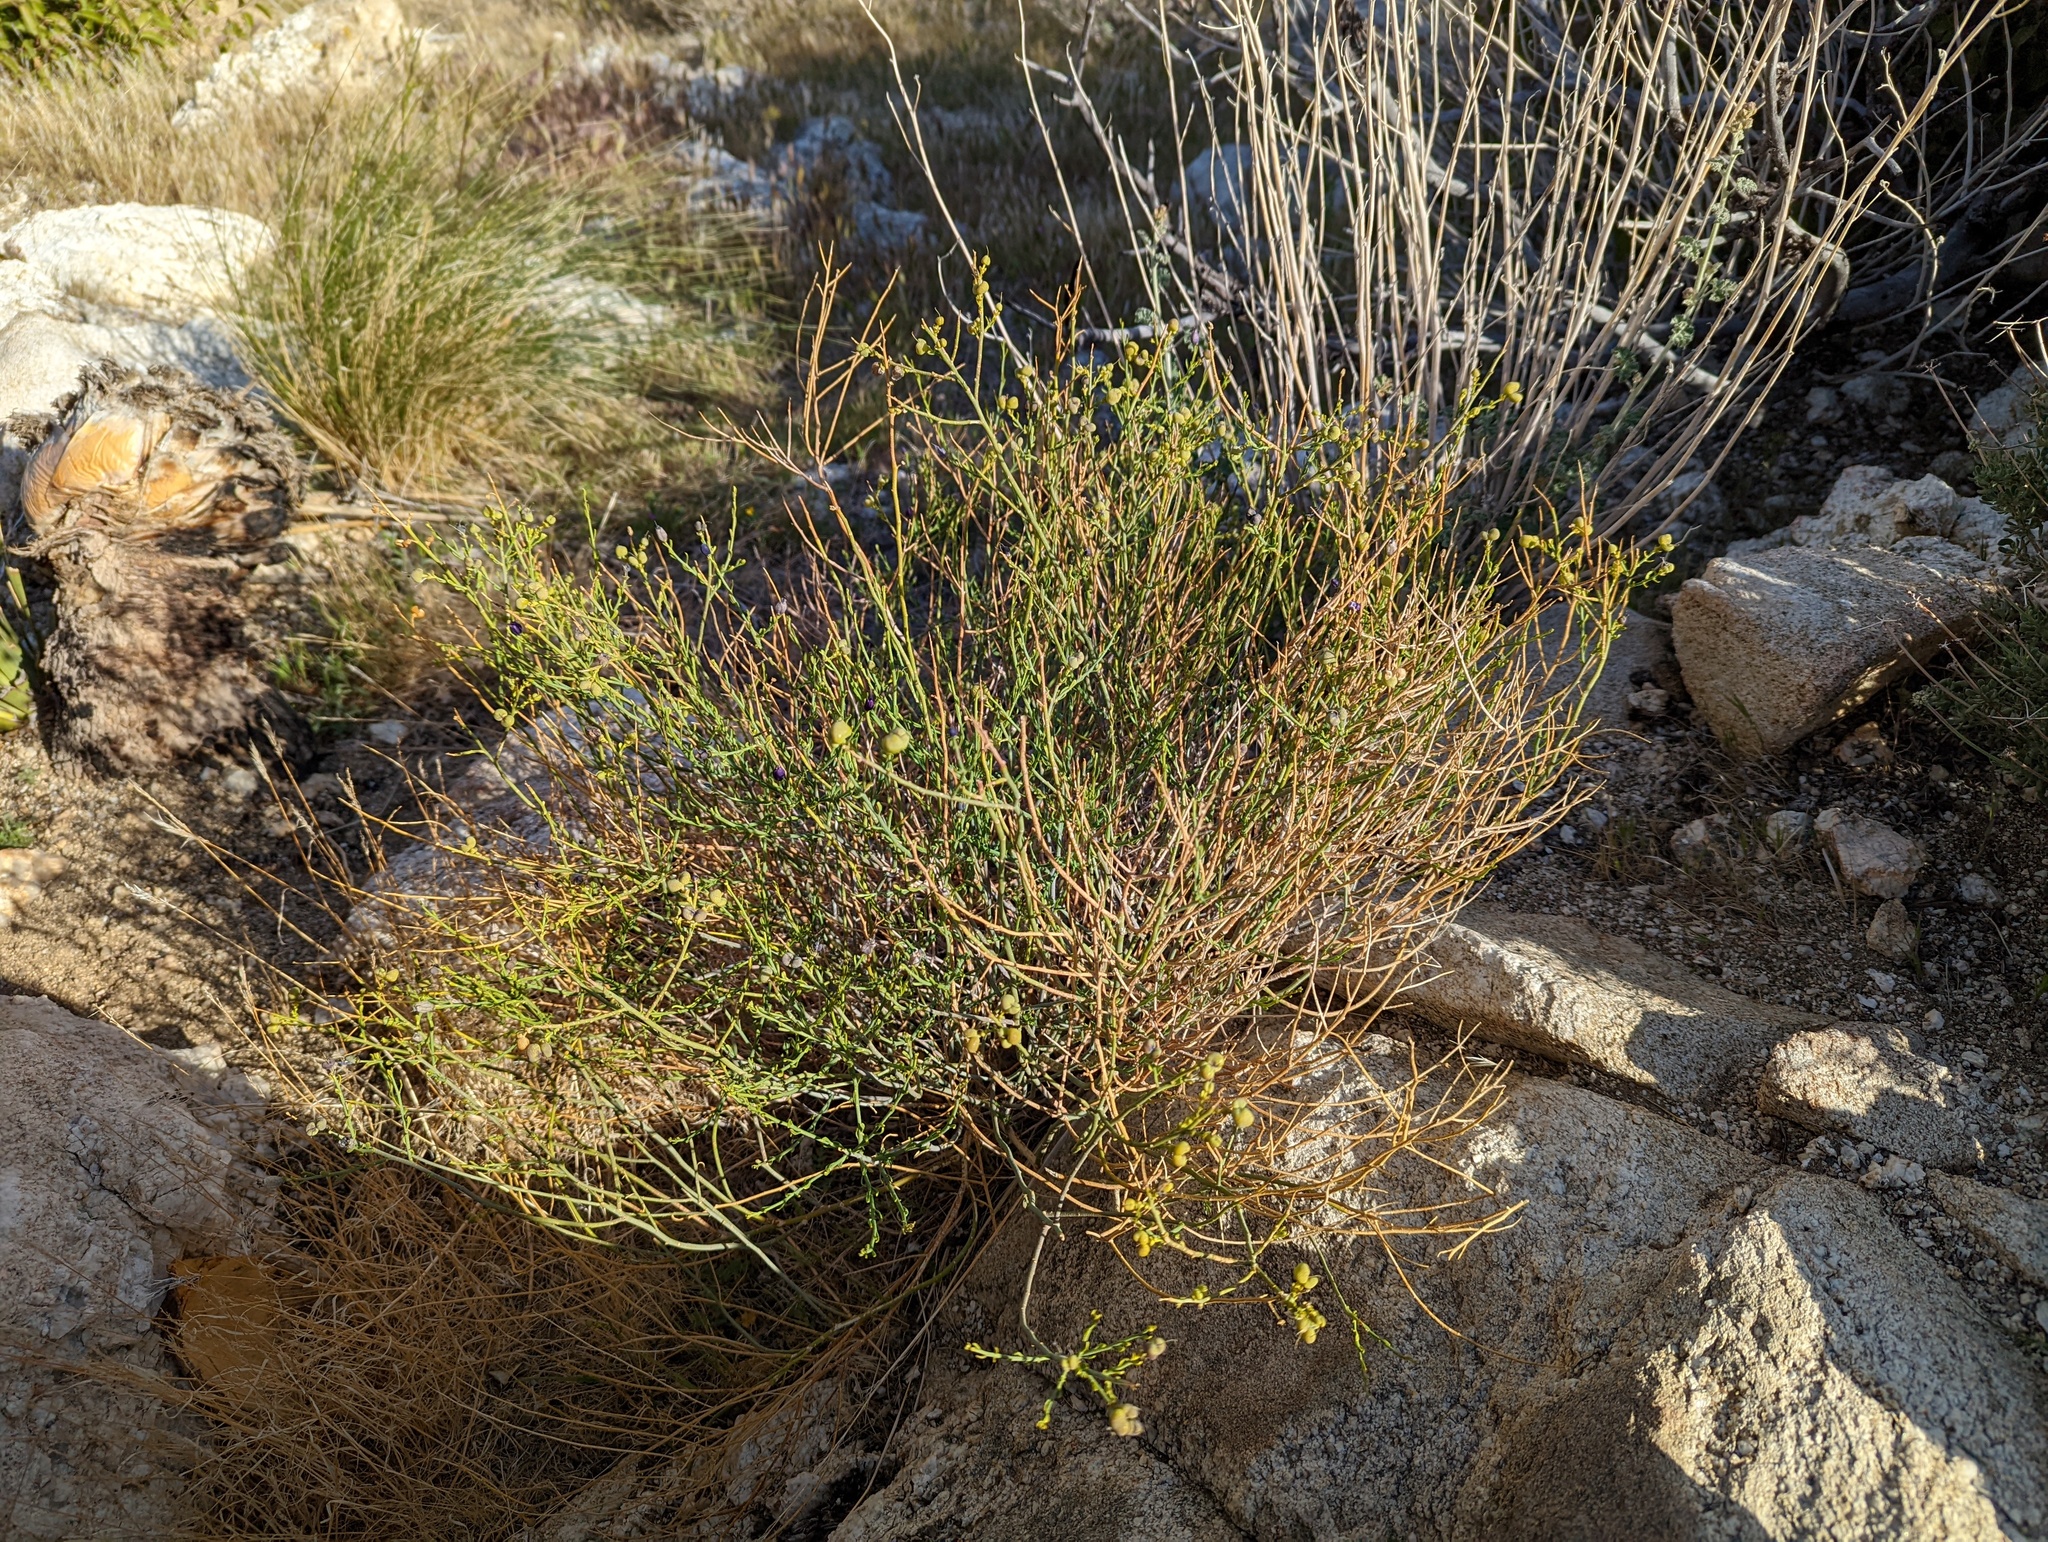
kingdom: Plantae
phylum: Tracheophyta
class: Magnoliopsida
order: Sapindales
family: Rutaceae
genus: Thamnosma
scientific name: Thamnosma montana
